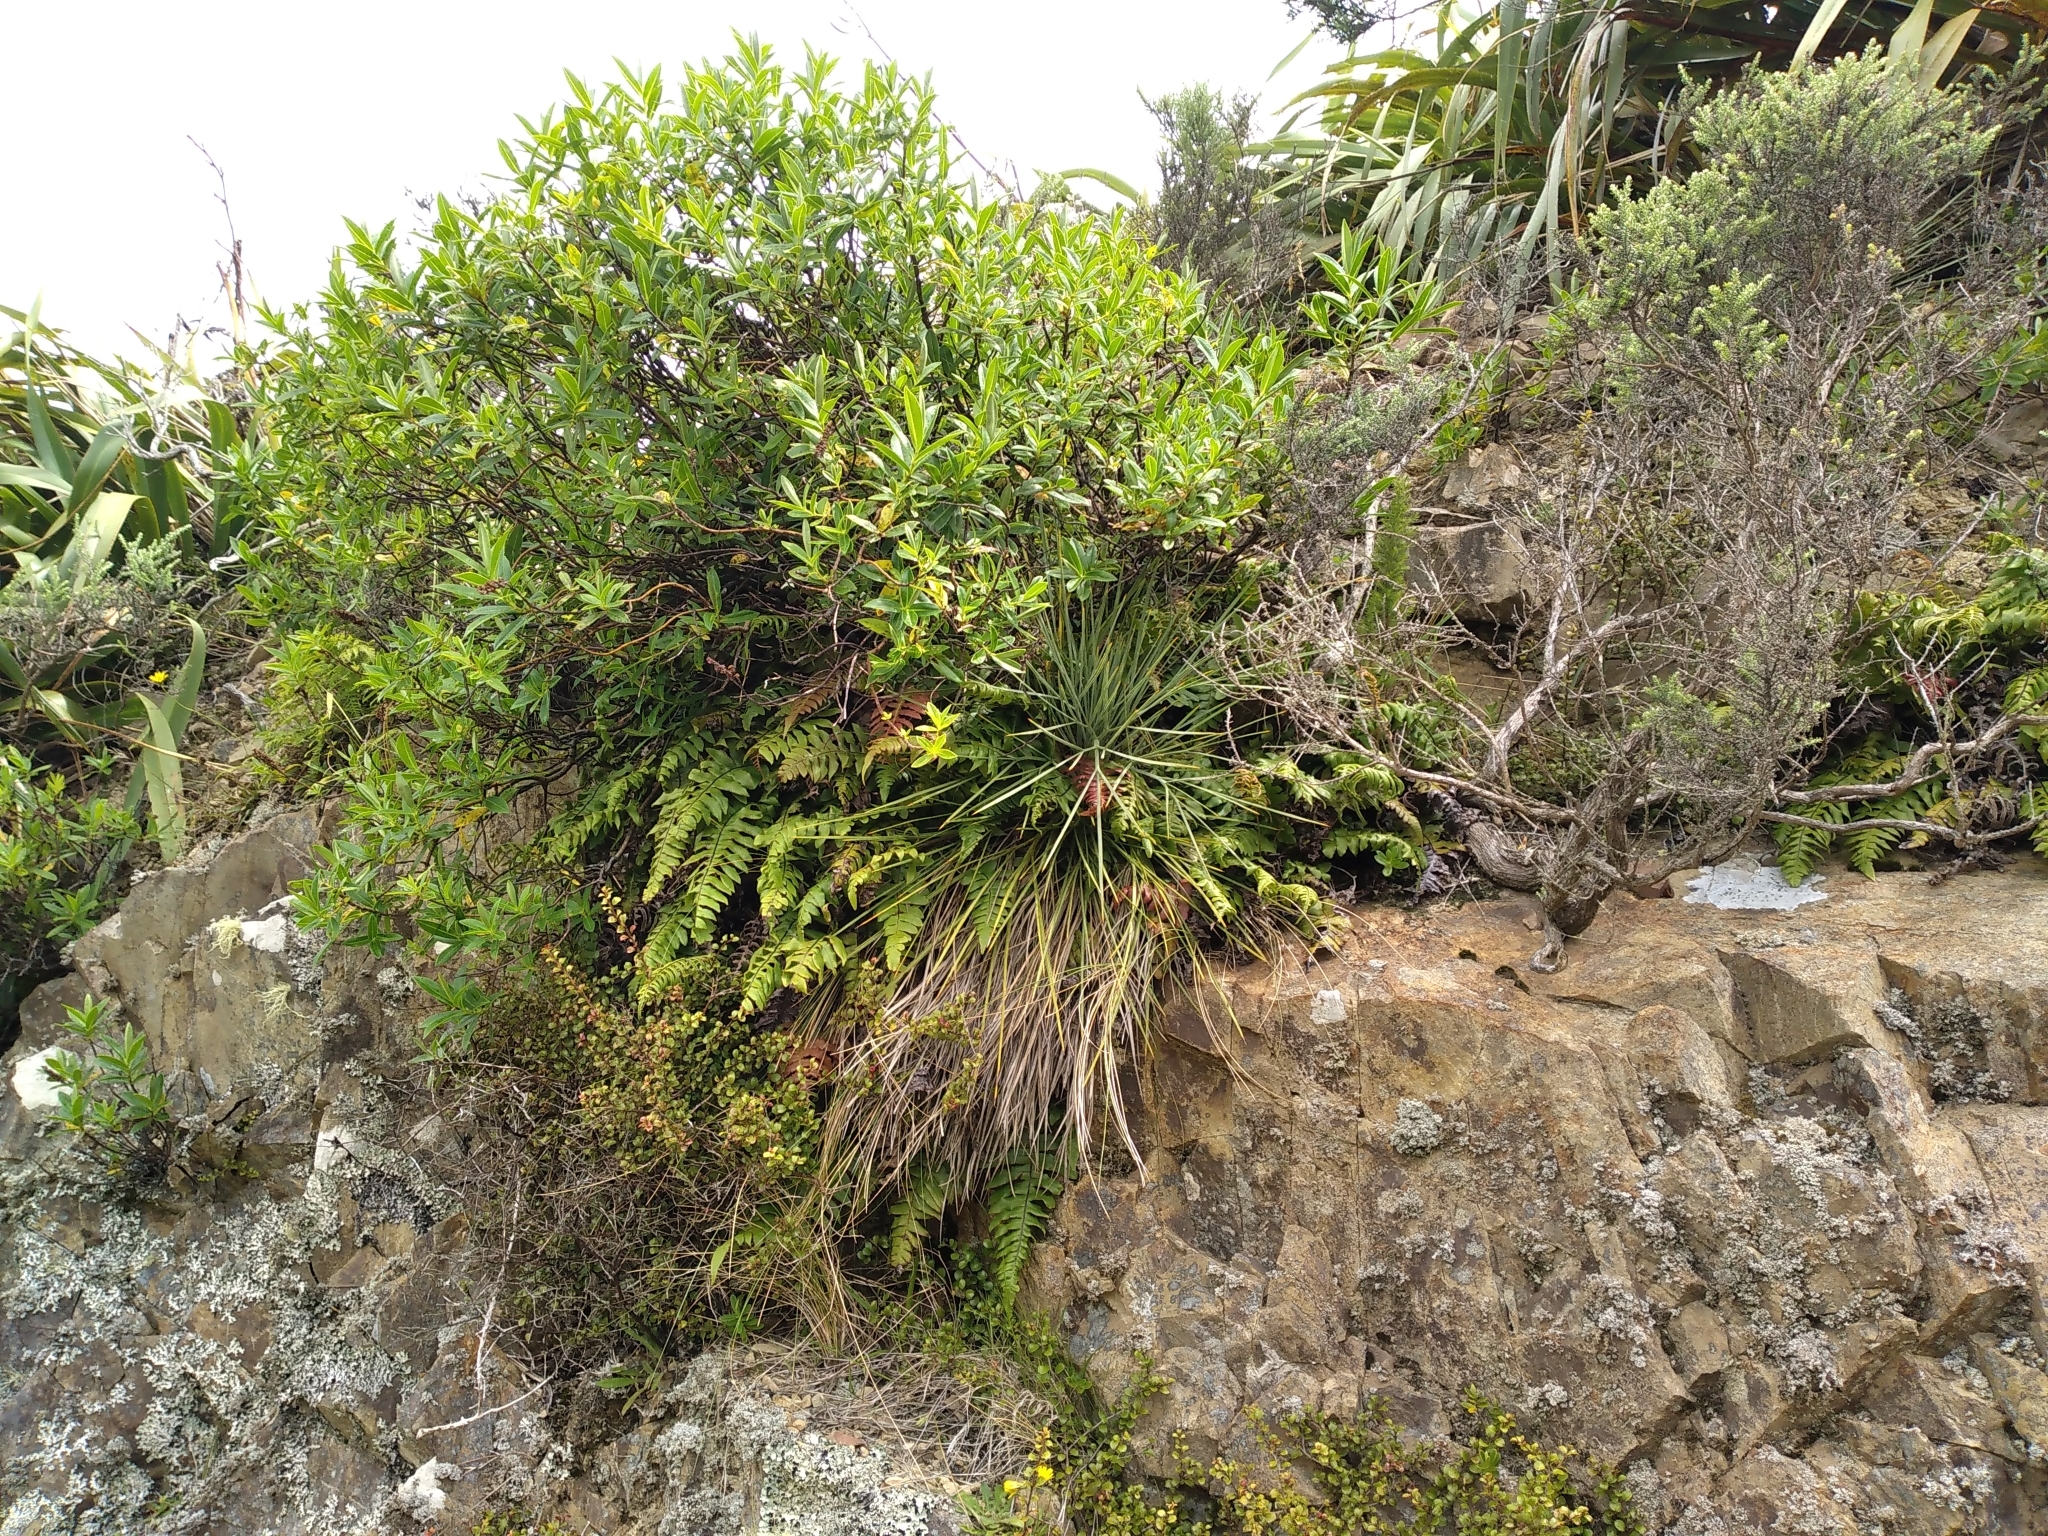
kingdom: Plantae
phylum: Tracheophyta
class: Magnoliopsida
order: Apiales
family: Apiaceae
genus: Aciphylla
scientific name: Aciphylla squarrosa
